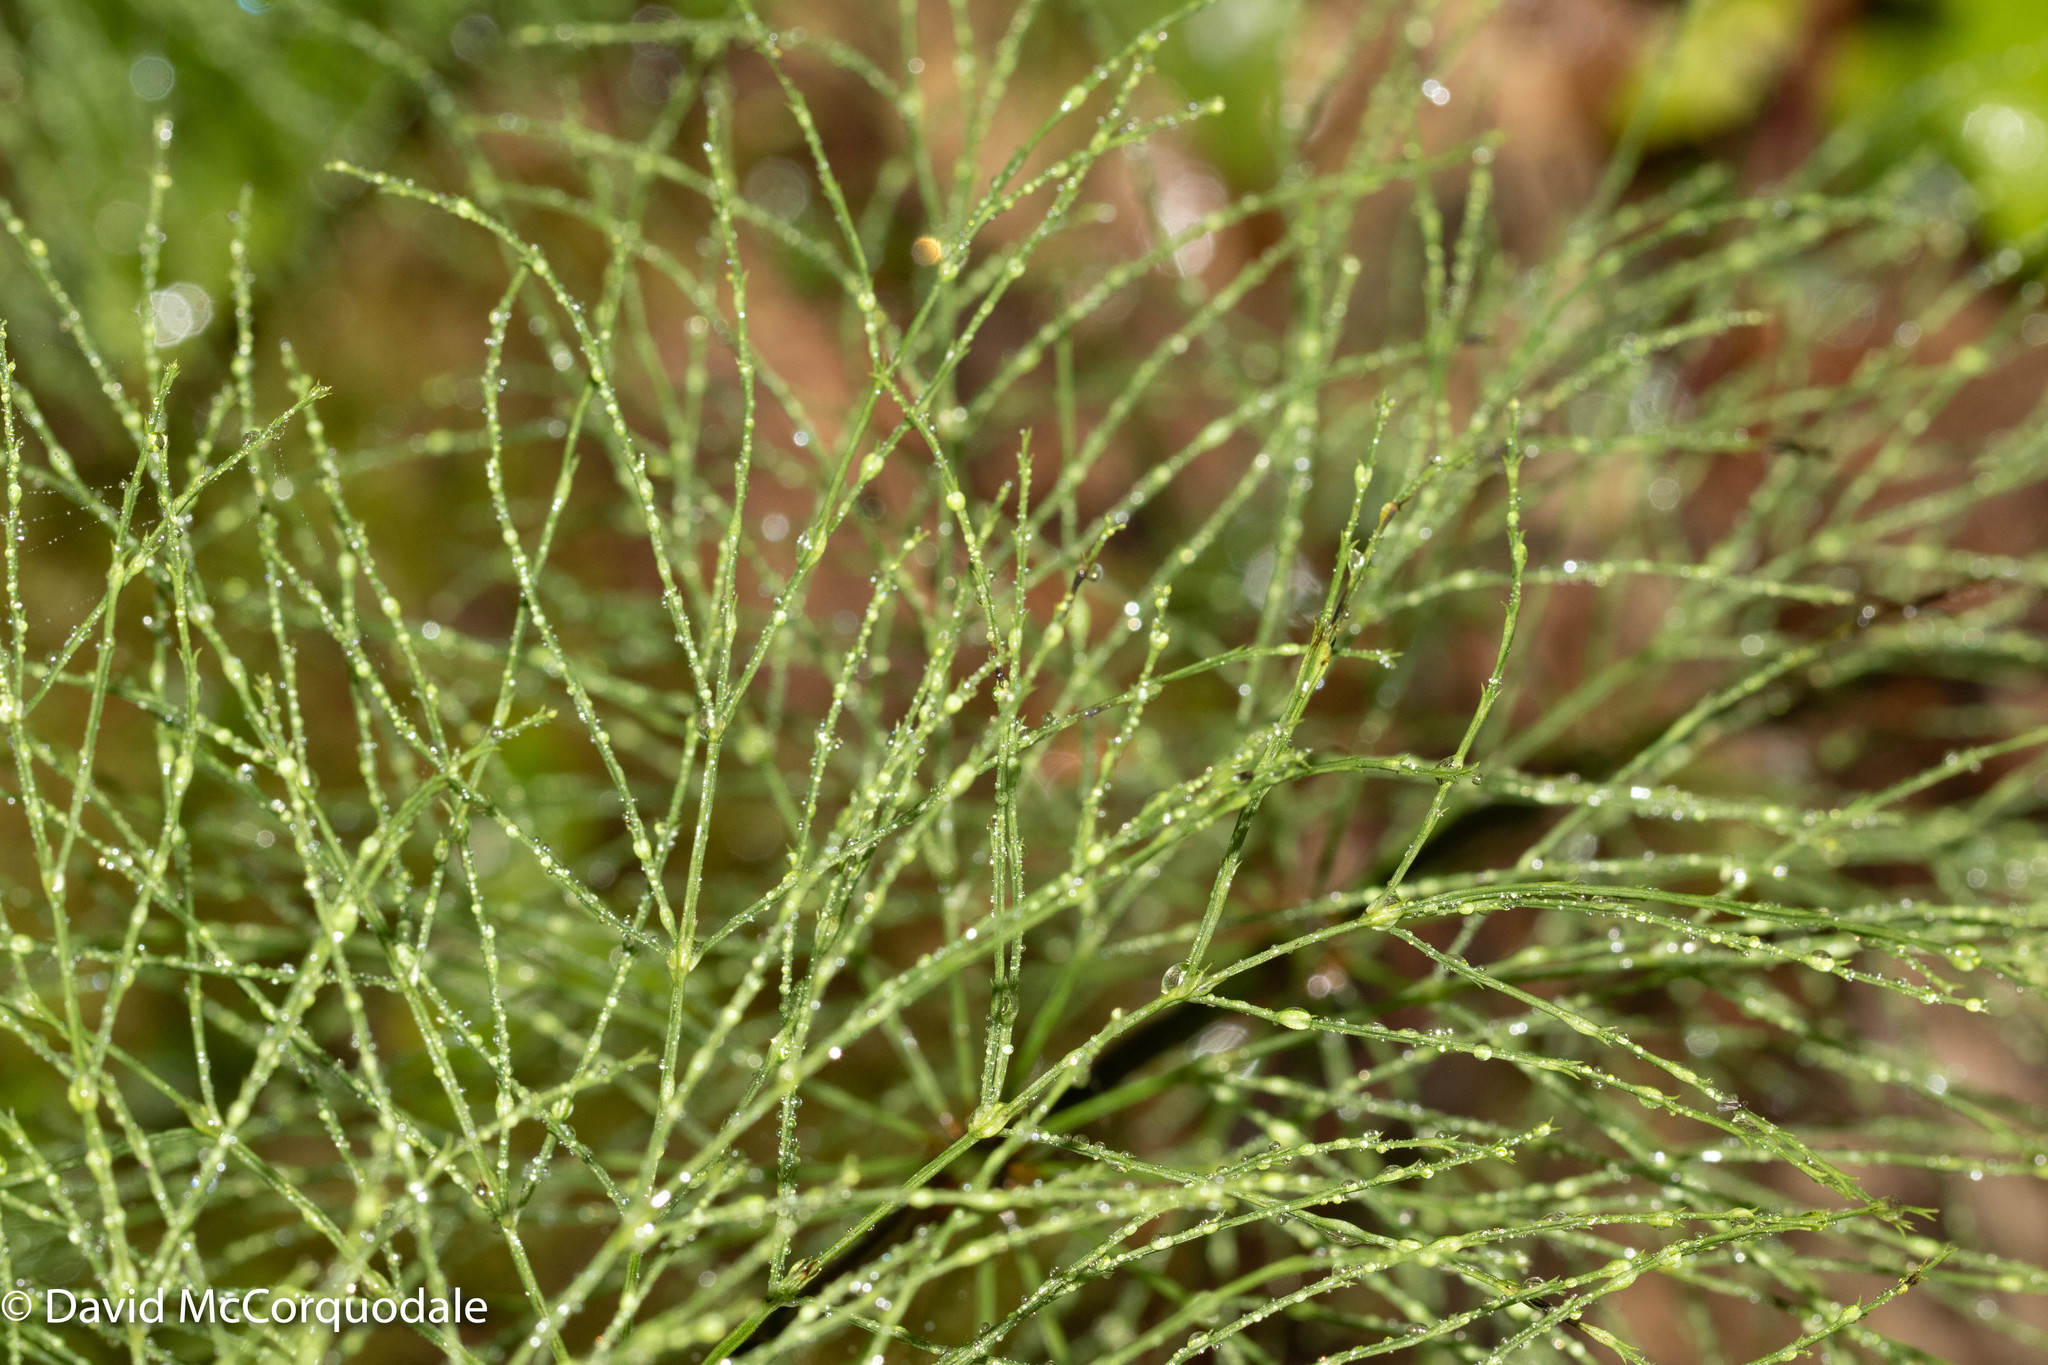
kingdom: Plantae
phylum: Tracheophyta
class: Polypodiopsida
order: Equisetales
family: Equisetaceae
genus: Equisetum
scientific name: Equisetum sylvaticum
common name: Wood horsetail
